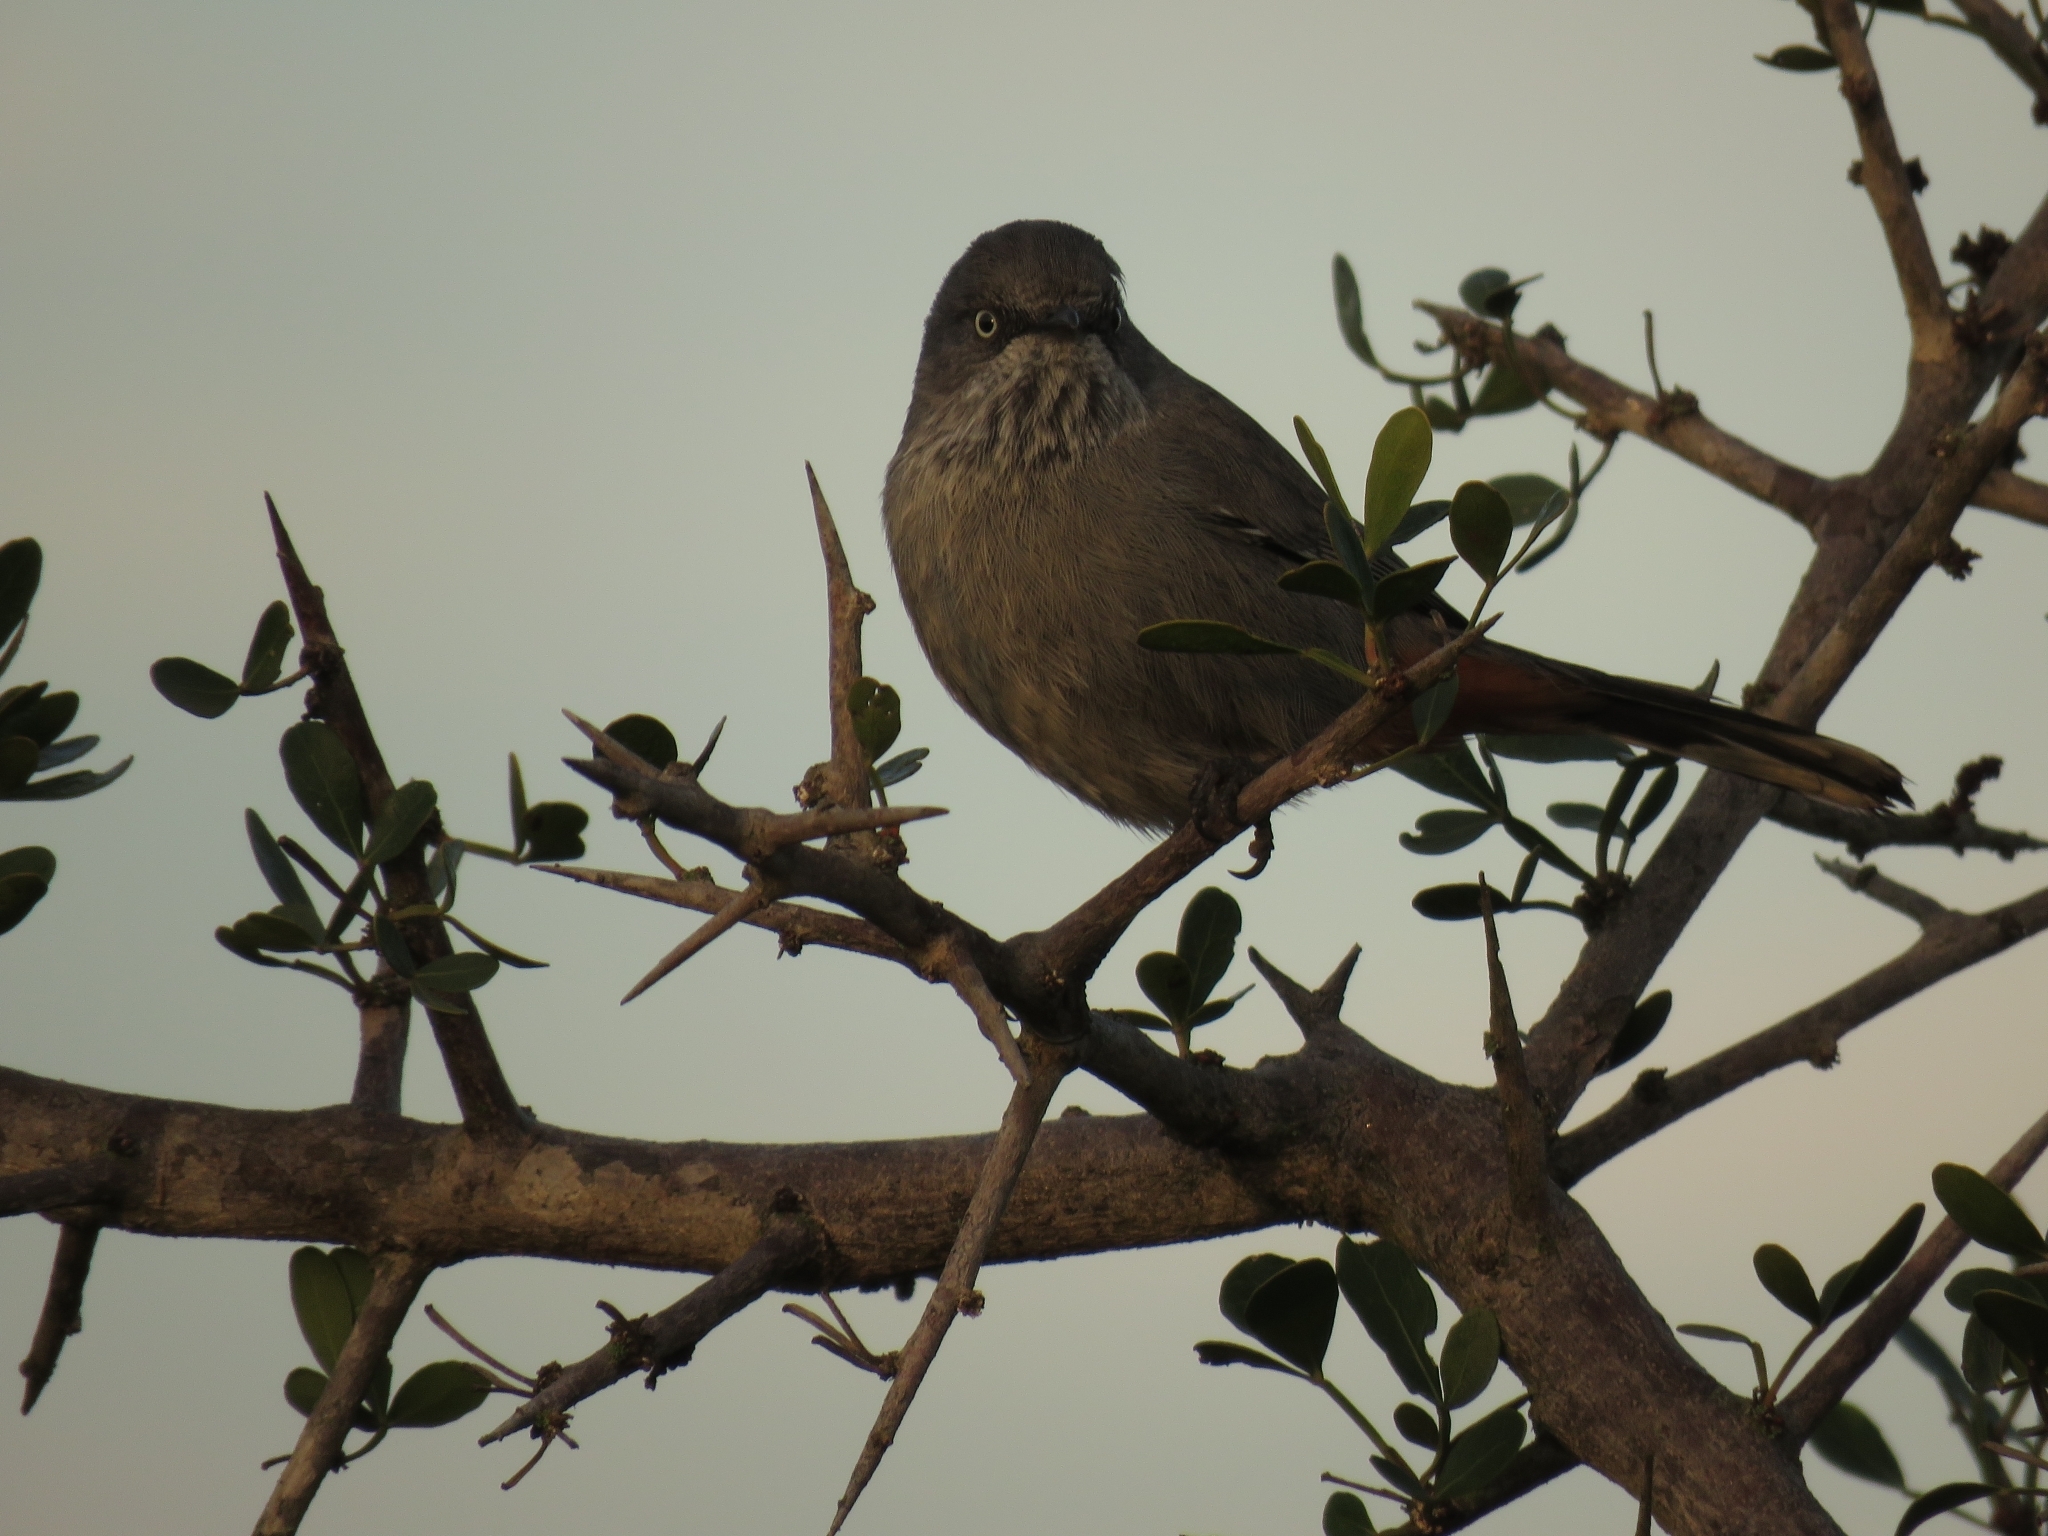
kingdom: Animalia
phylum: Chordata
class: Aves
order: Passeriformes
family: Sylviidae
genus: Curruca
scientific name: Curruca subcoerulea
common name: Chestnut-vented warbler
